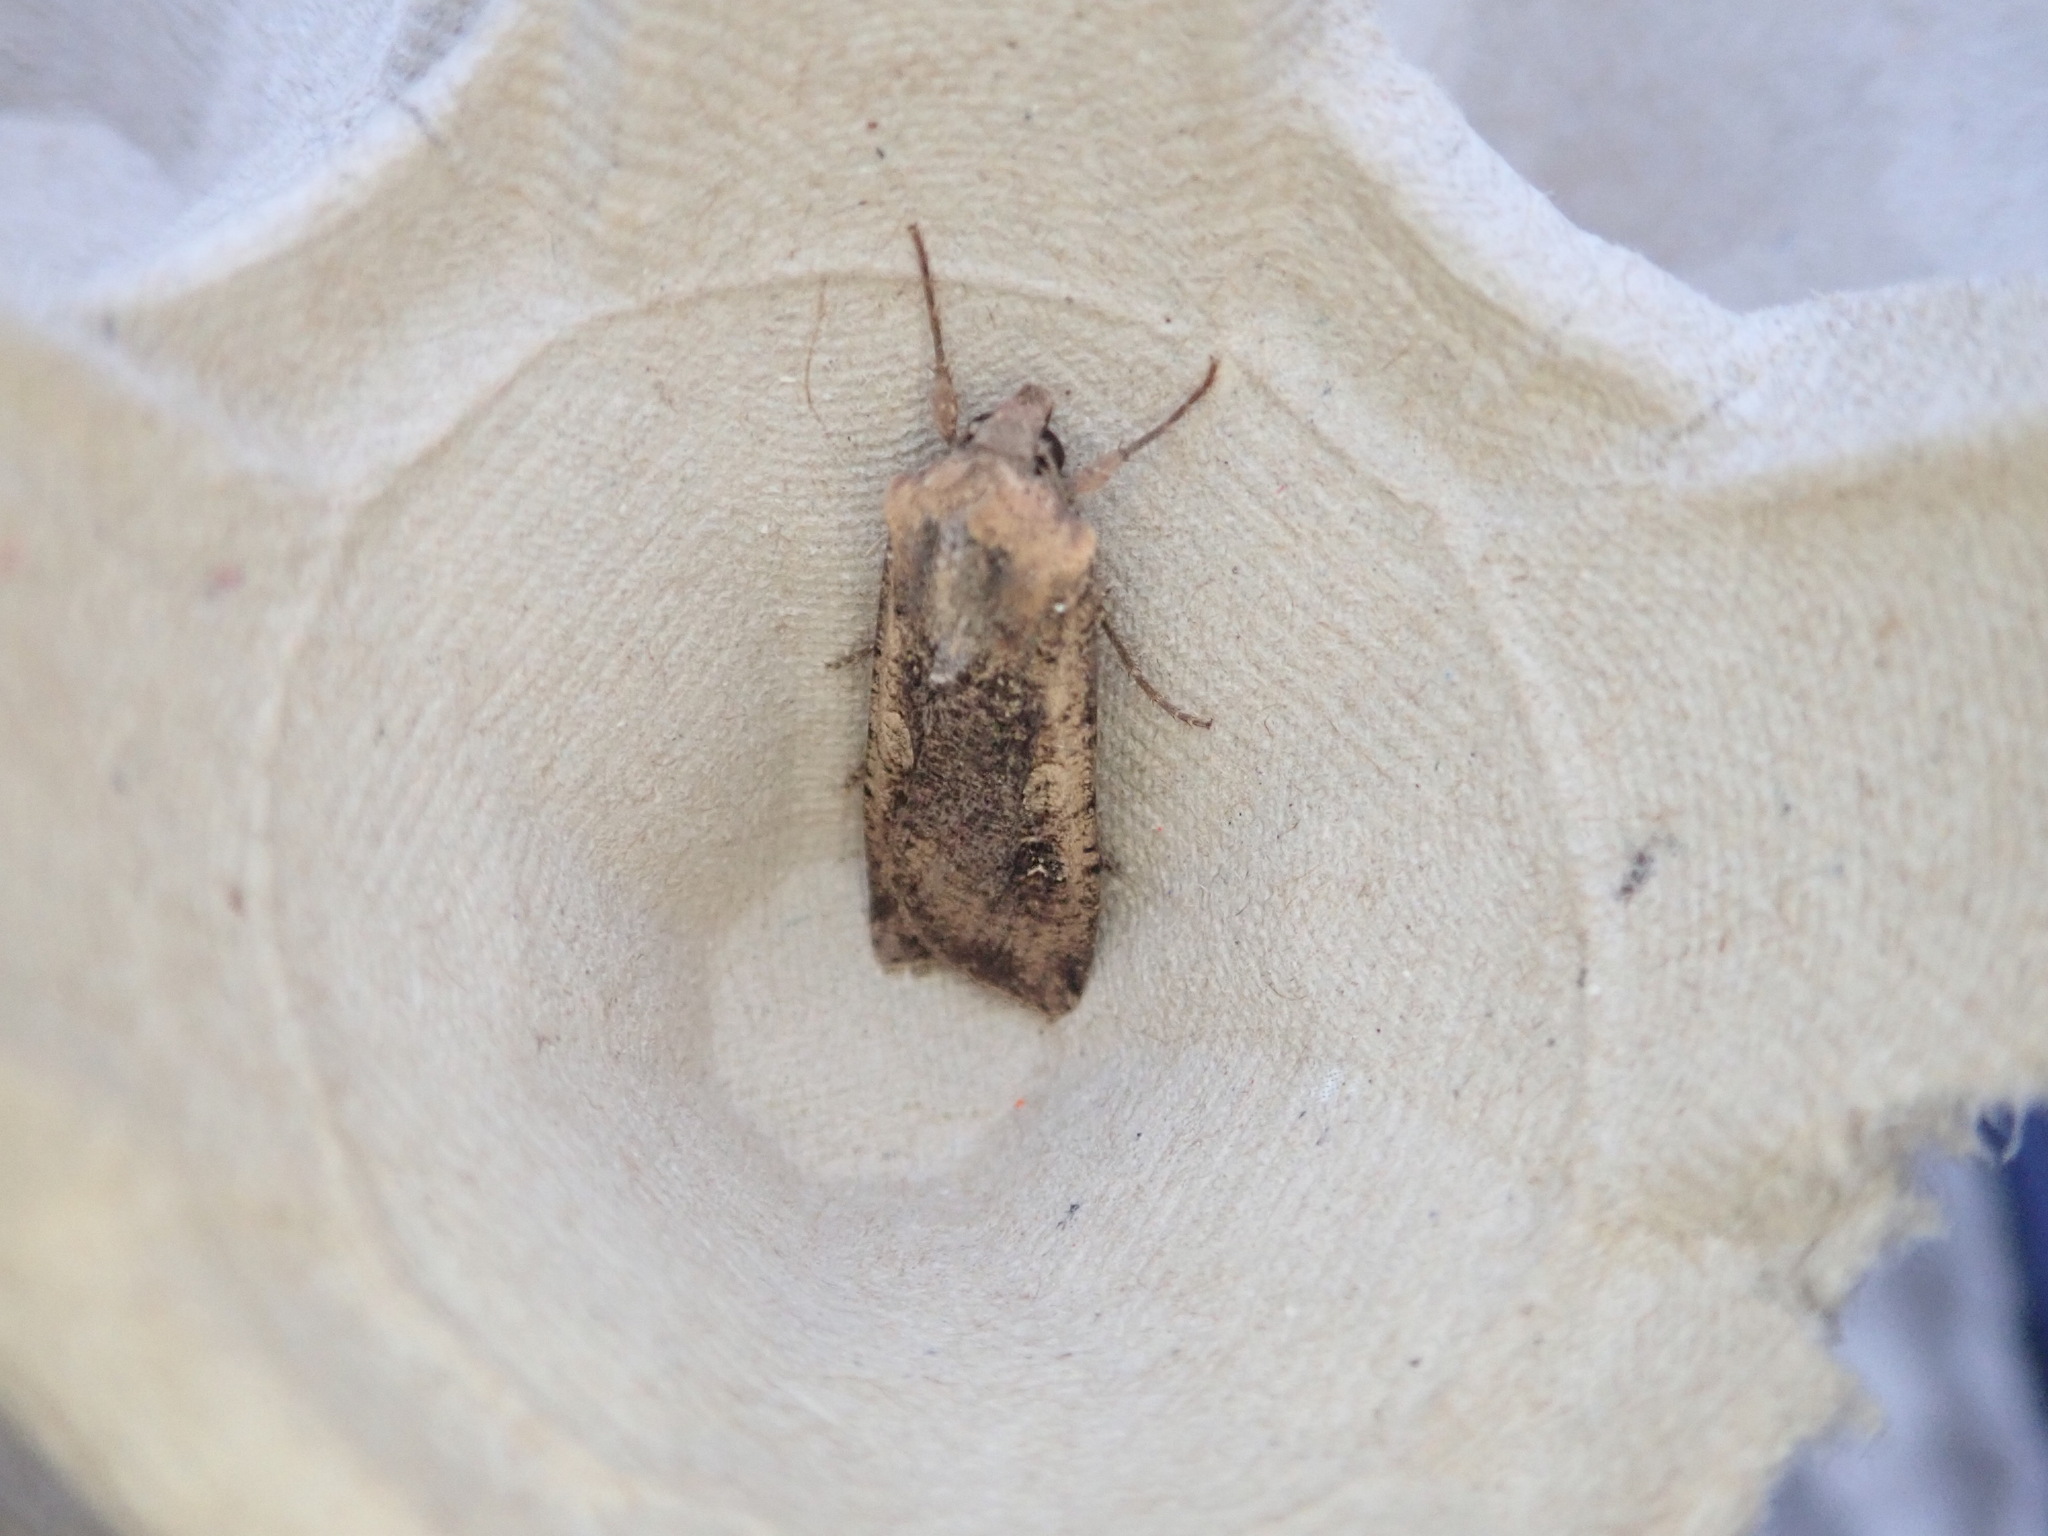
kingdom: Animalia
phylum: Arthropoda
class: Insecta
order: Lepidoptera
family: Noctuidae
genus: Noctua
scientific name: Noctua pronuba
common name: Large yellow underwing
